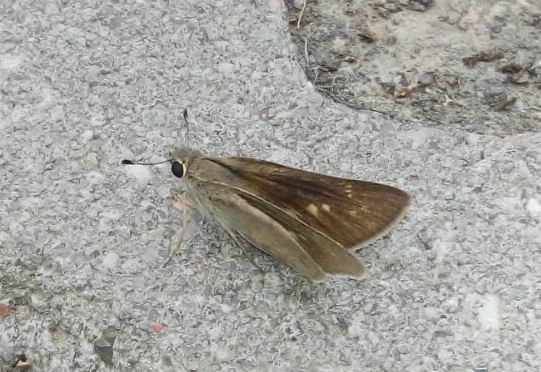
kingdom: Animalia
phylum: Arthropoda
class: Insecta
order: Lepidoptera
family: Hesperiidae
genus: Gegenes
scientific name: Gegenes nostrodamus
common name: Mediterranean skipper
